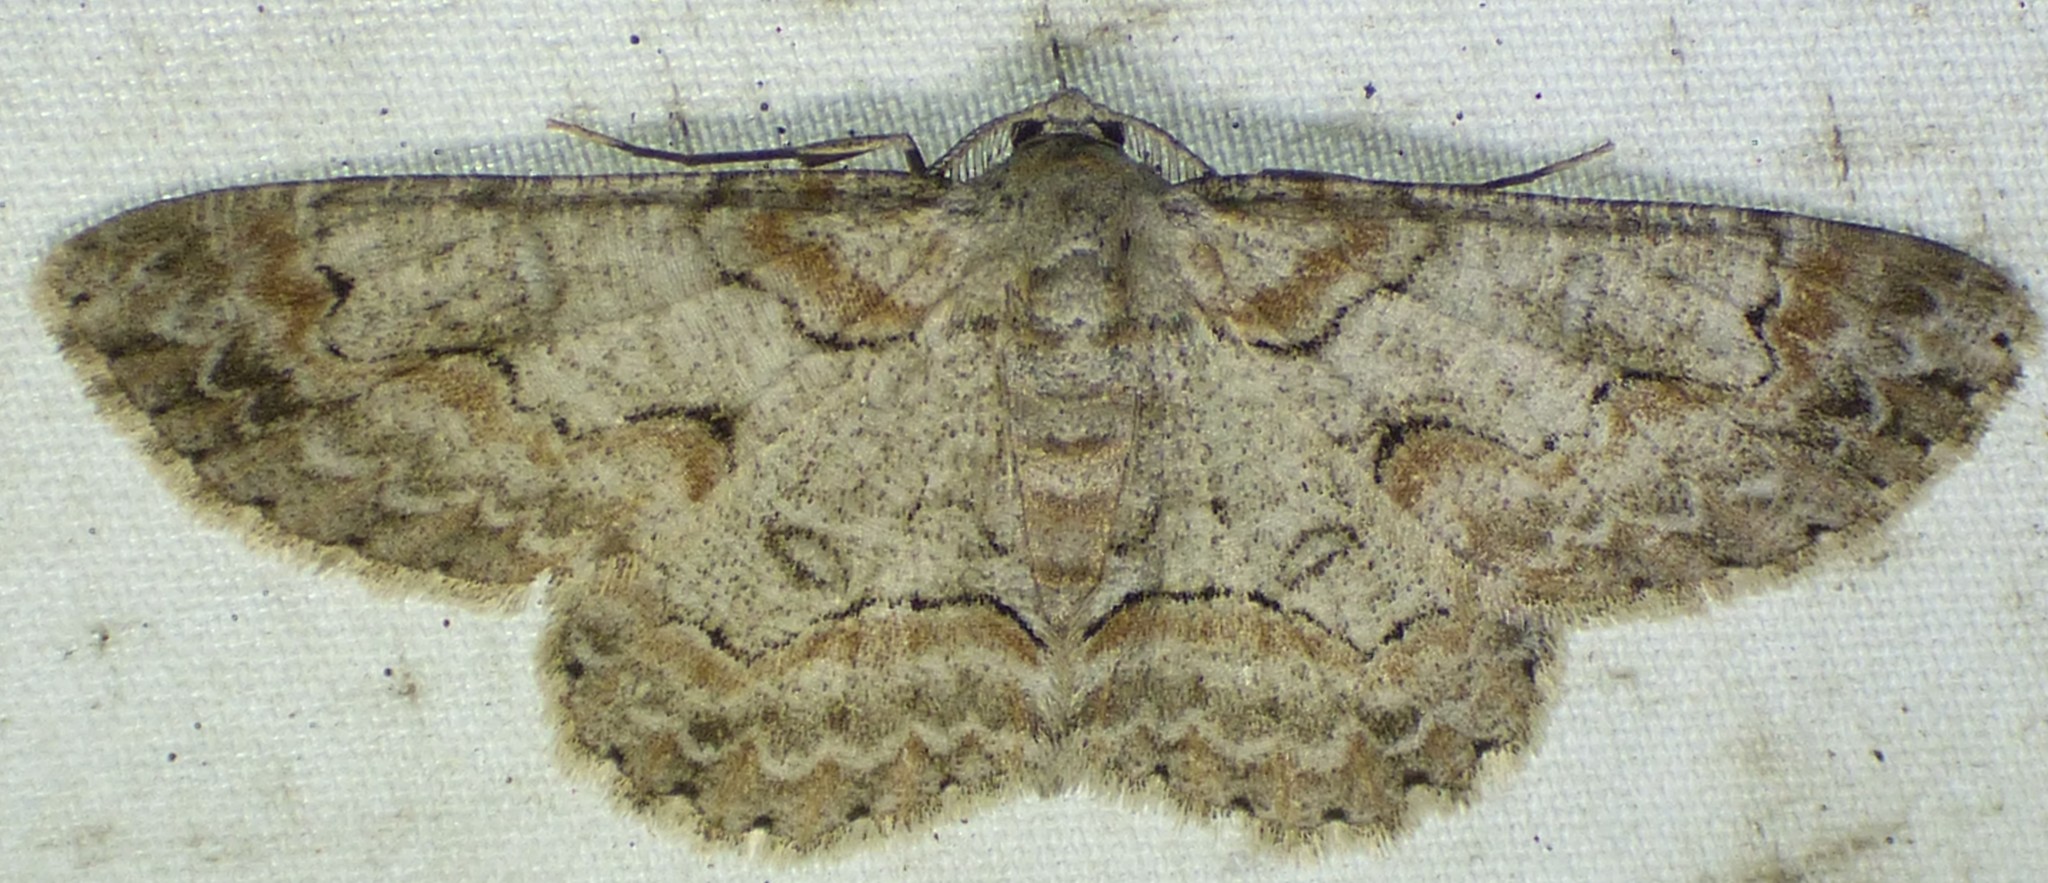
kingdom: Animalia
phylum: Arthropoda
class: Insecta
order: Lepidoptera
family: Geometridae
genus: Iridopsis
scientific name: Iridopsis defectaria
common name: Brown-shaded gray
